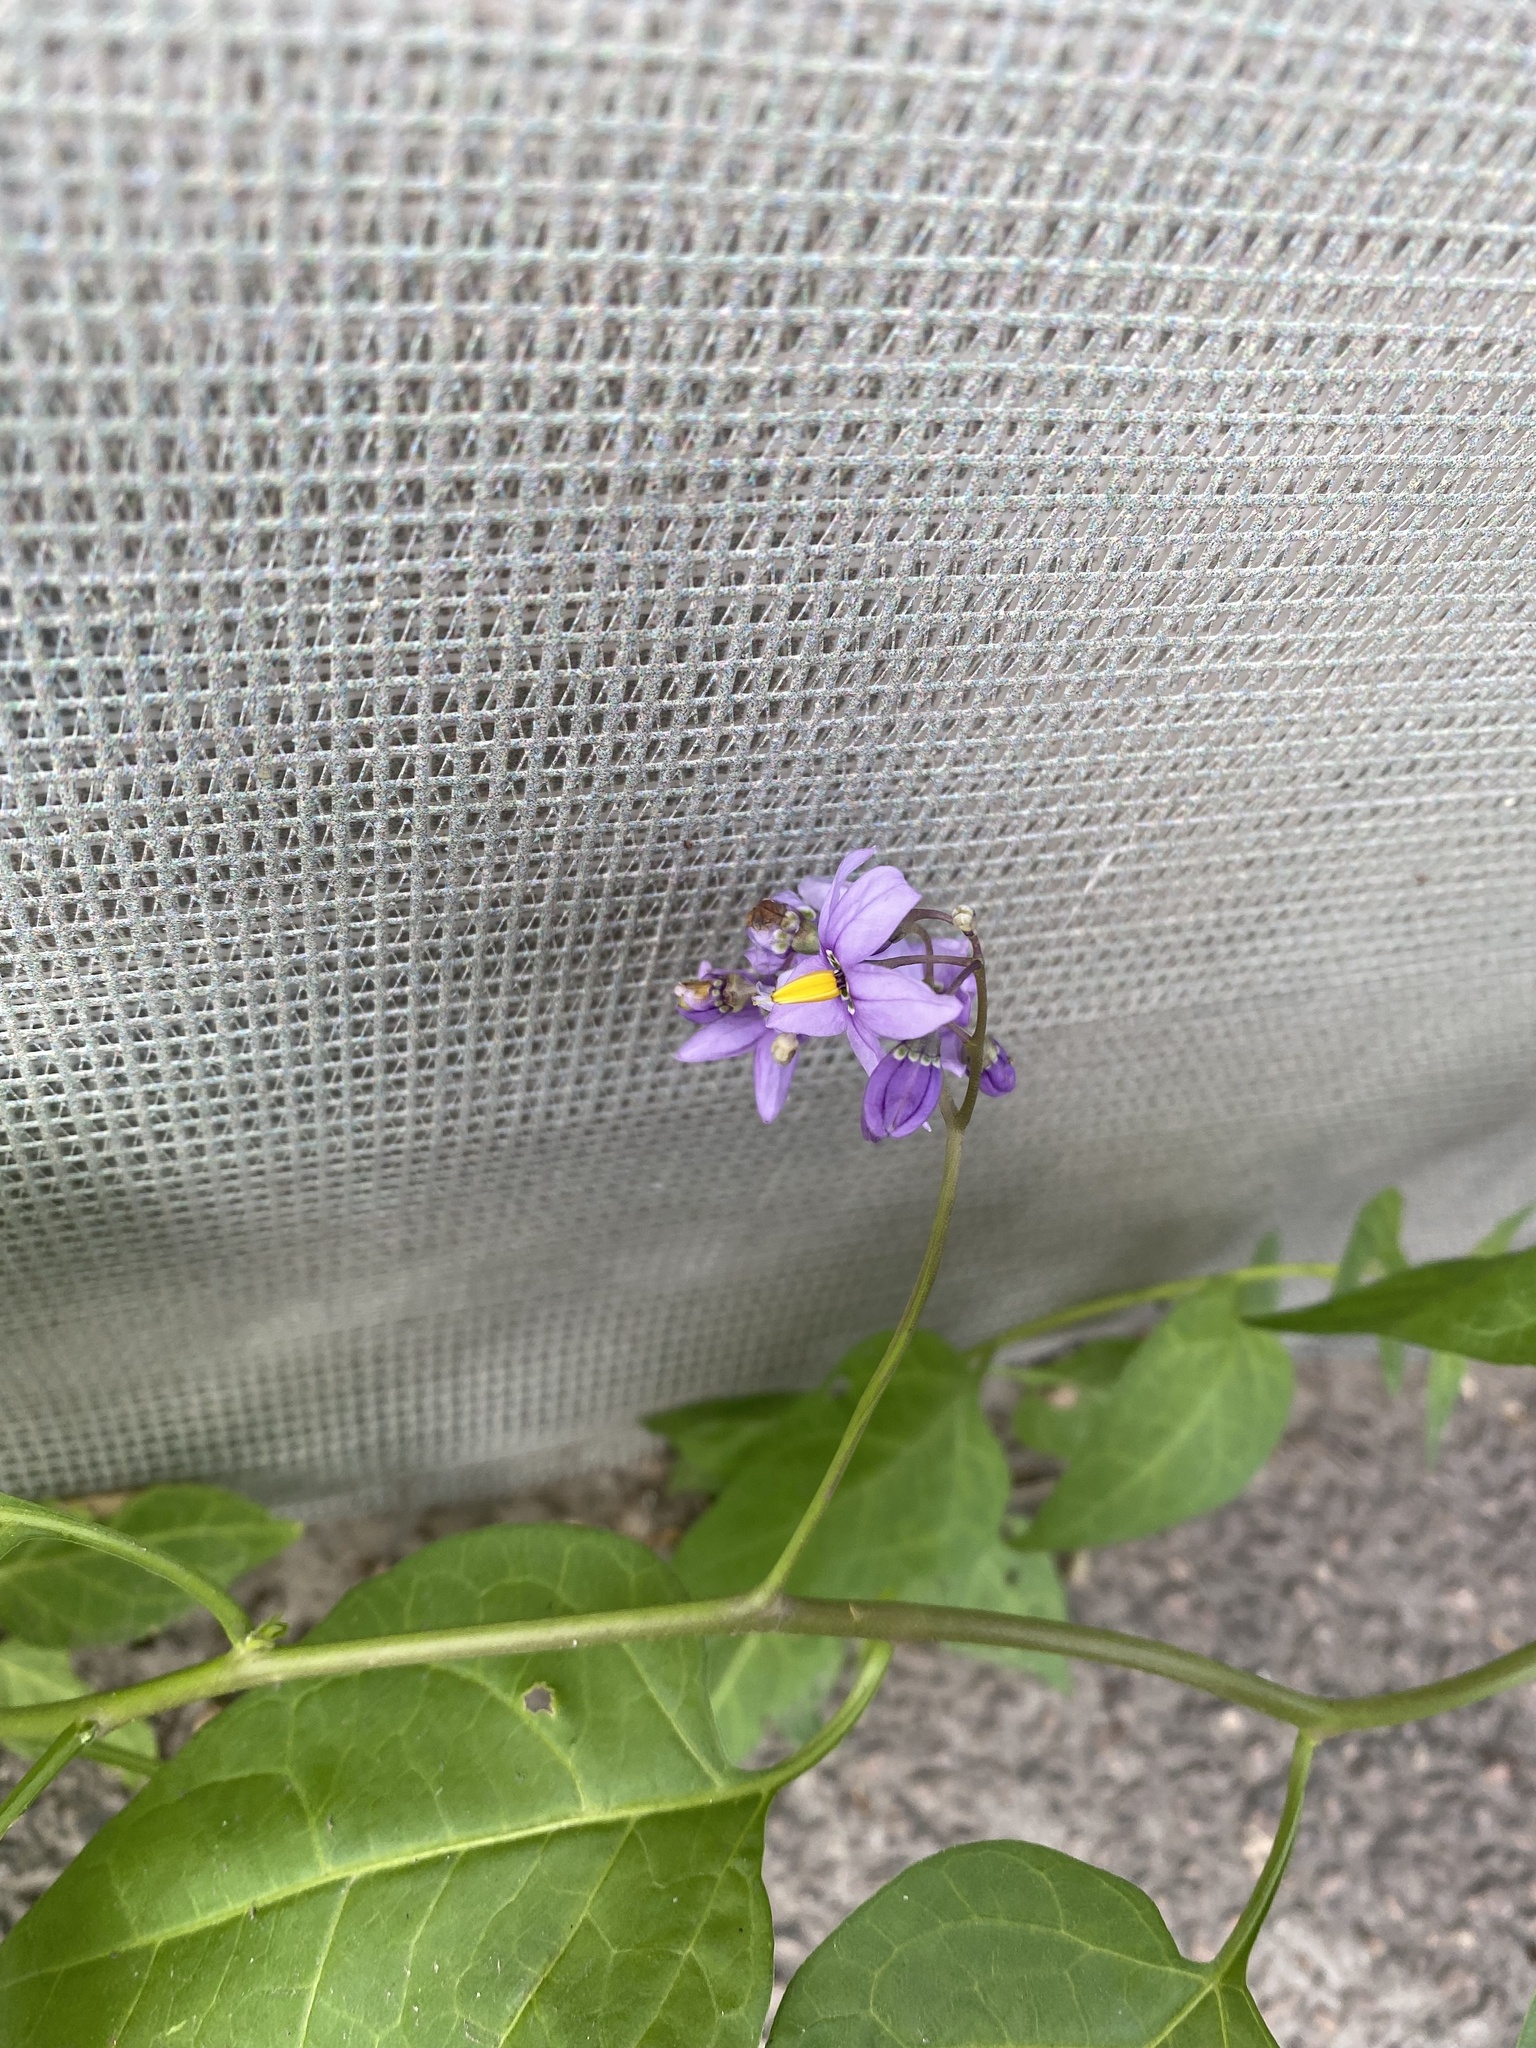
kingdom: Plantae
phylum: Tracheophyta
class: Magnoliopsida
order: Solanales
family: Solanaceae
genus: Solanum
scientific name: Solanum dulcamara
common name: Climbing nightshade
